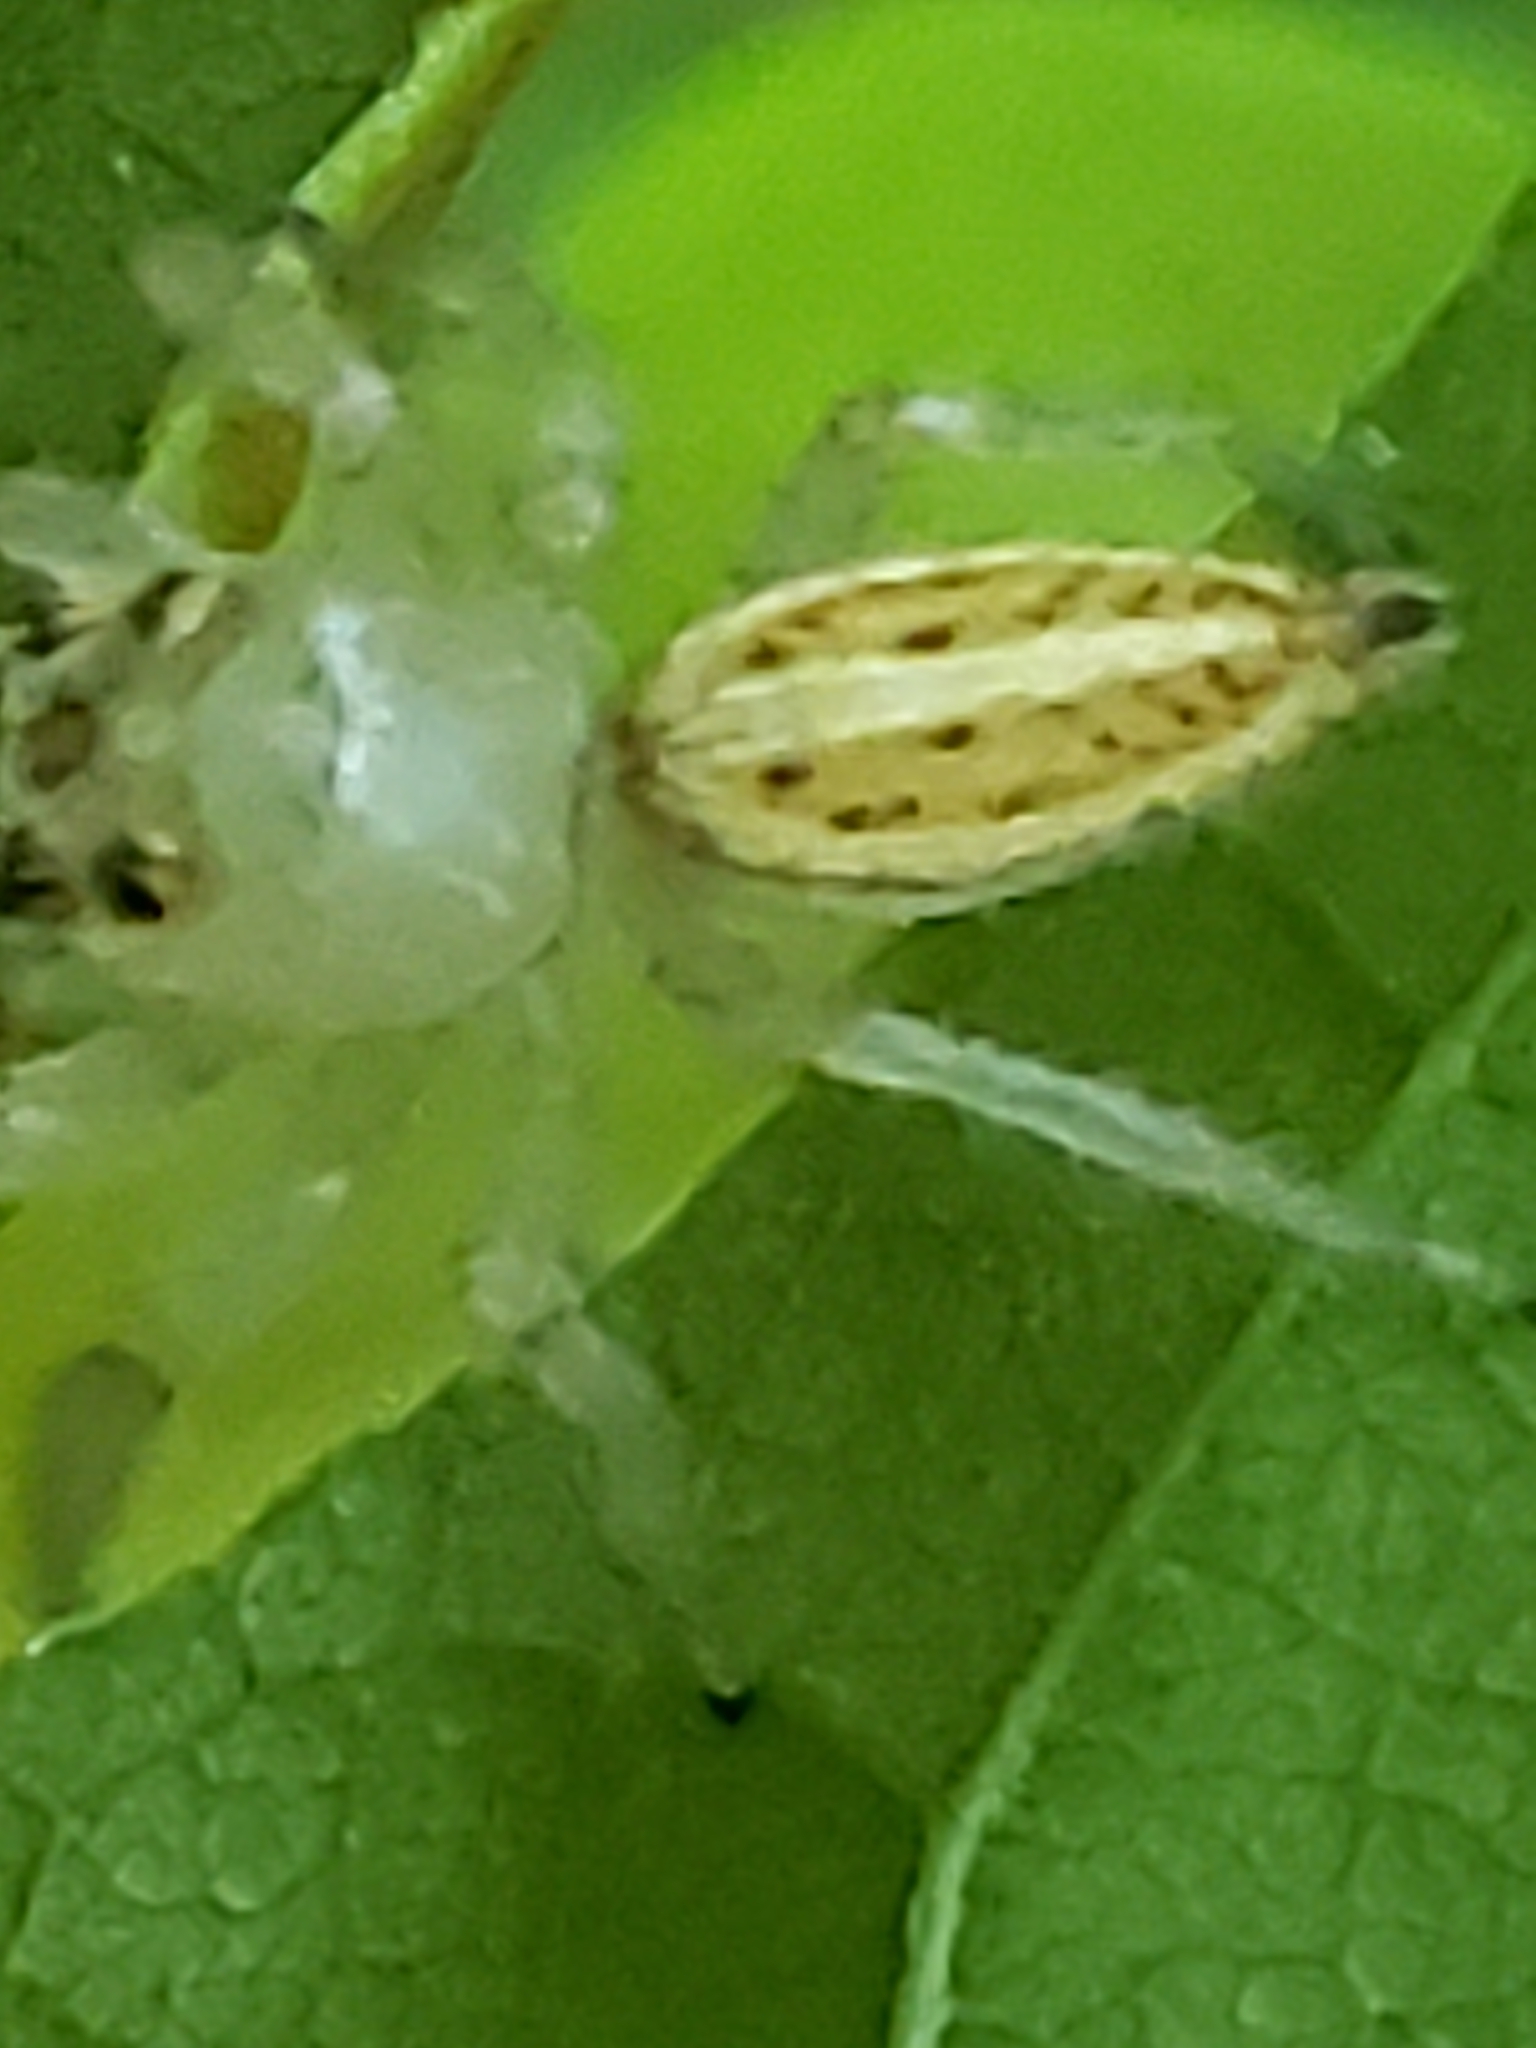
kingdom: Animalia
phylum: Arthropoda
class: Arachnida
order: Araneae
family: Salticidae
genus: Colonus
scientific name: Colonus sylvanus
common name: Jumping spiders
